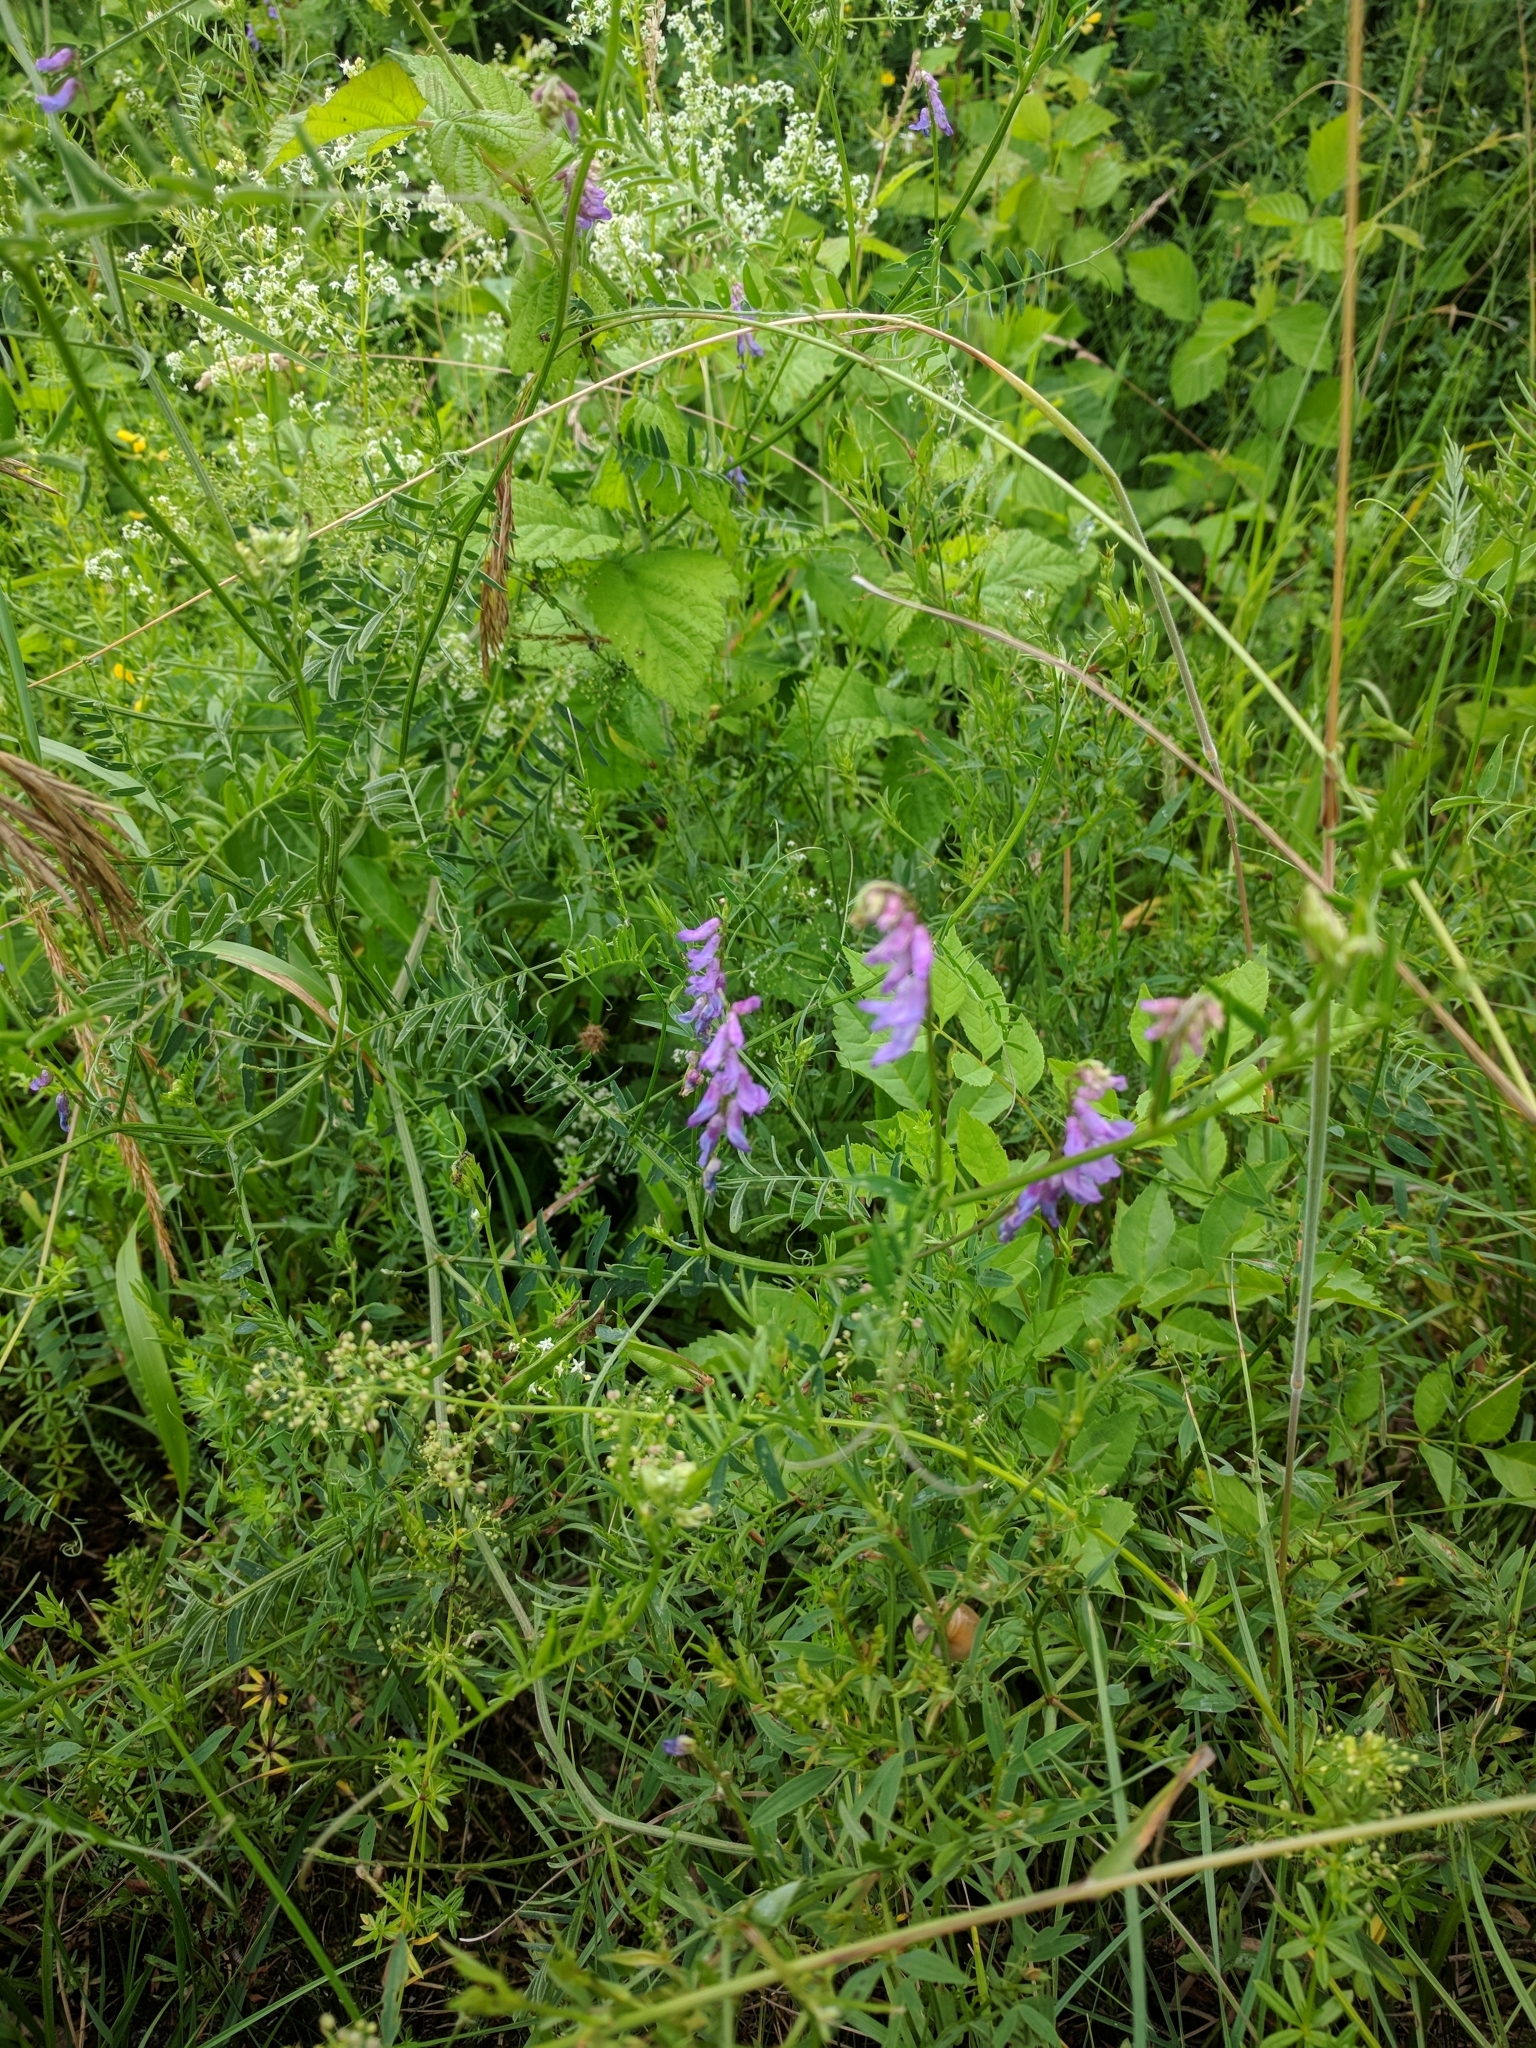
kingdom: Plantae
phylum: Tracheophyta
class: Magnoliopsida
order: Fabales
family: Fabaceae
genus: Vicia
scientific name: Vicia cracca
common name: Bird vetch
